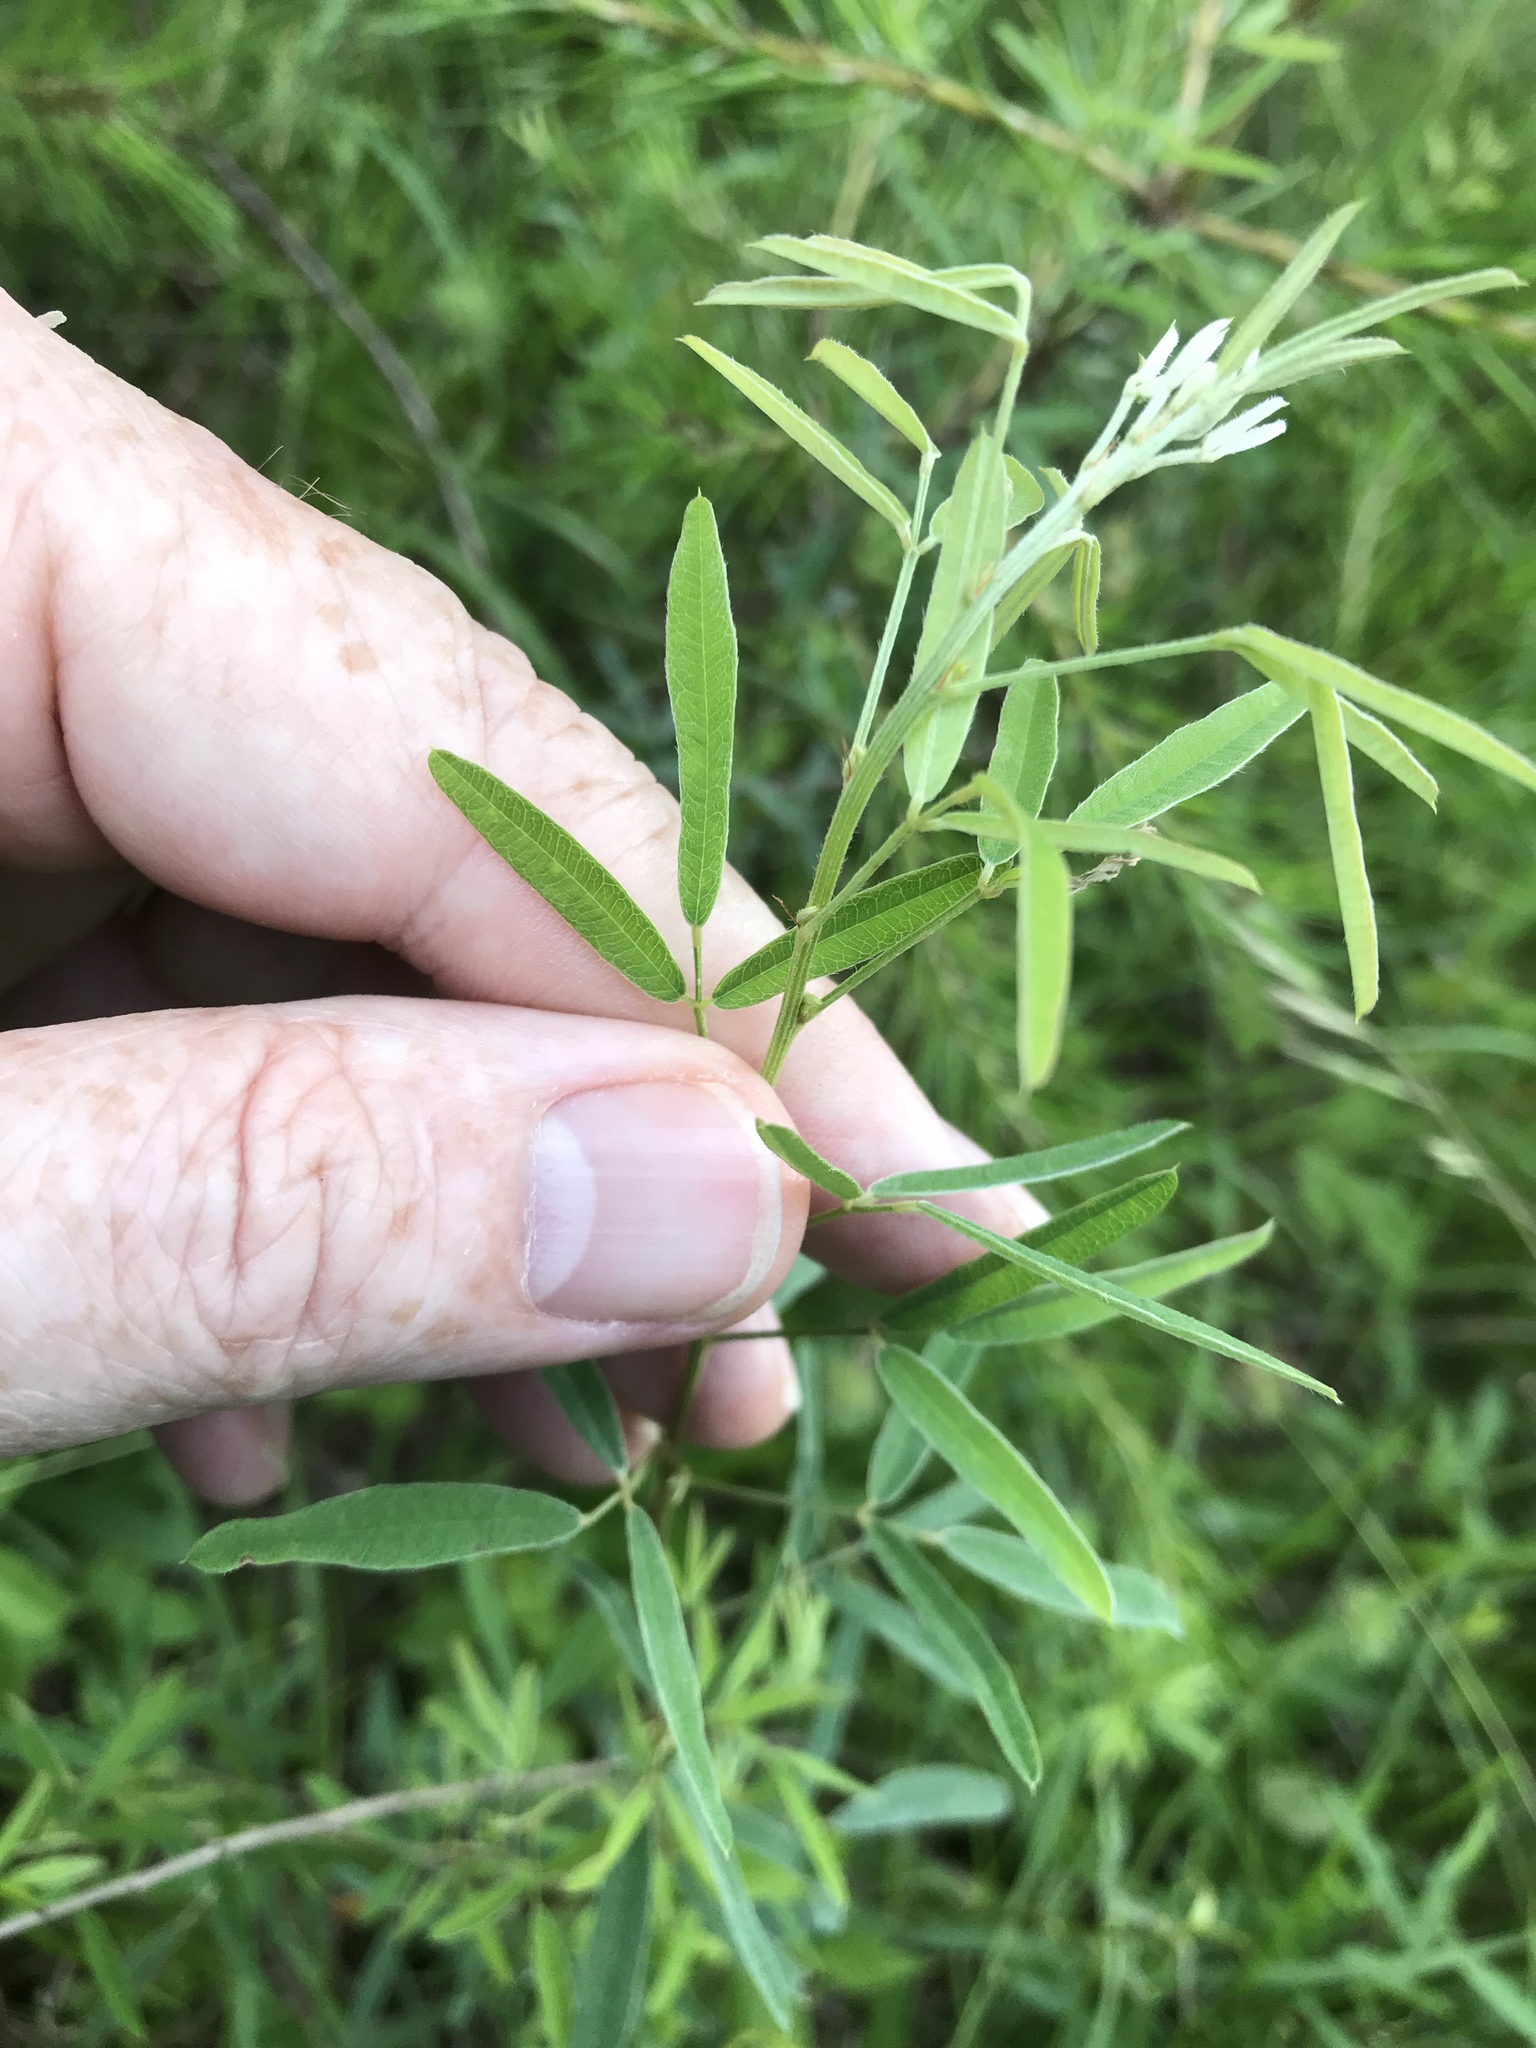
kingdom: Plantae
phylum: Tracheophyta
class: Magnoliopsida
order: Fabales
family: Fabaceae
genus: Lespedeza
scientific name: Lespedeza virginica
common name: Slender bush-clover
